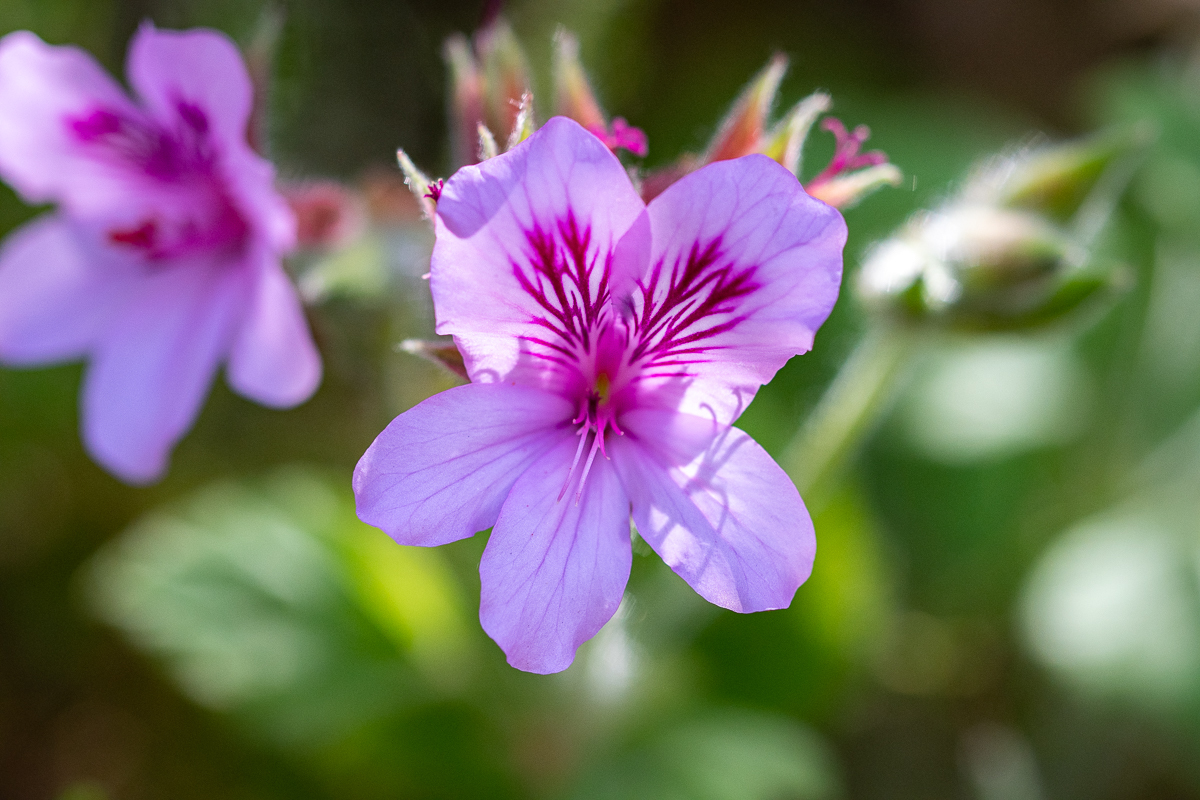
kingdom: Plantae
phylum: Tracheophyta
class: Magnoliopsida
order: Geraniales
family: Geraniaceae
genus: Pelargonium
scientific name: Pelargonium cucullatum
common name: Tree pelargonium
